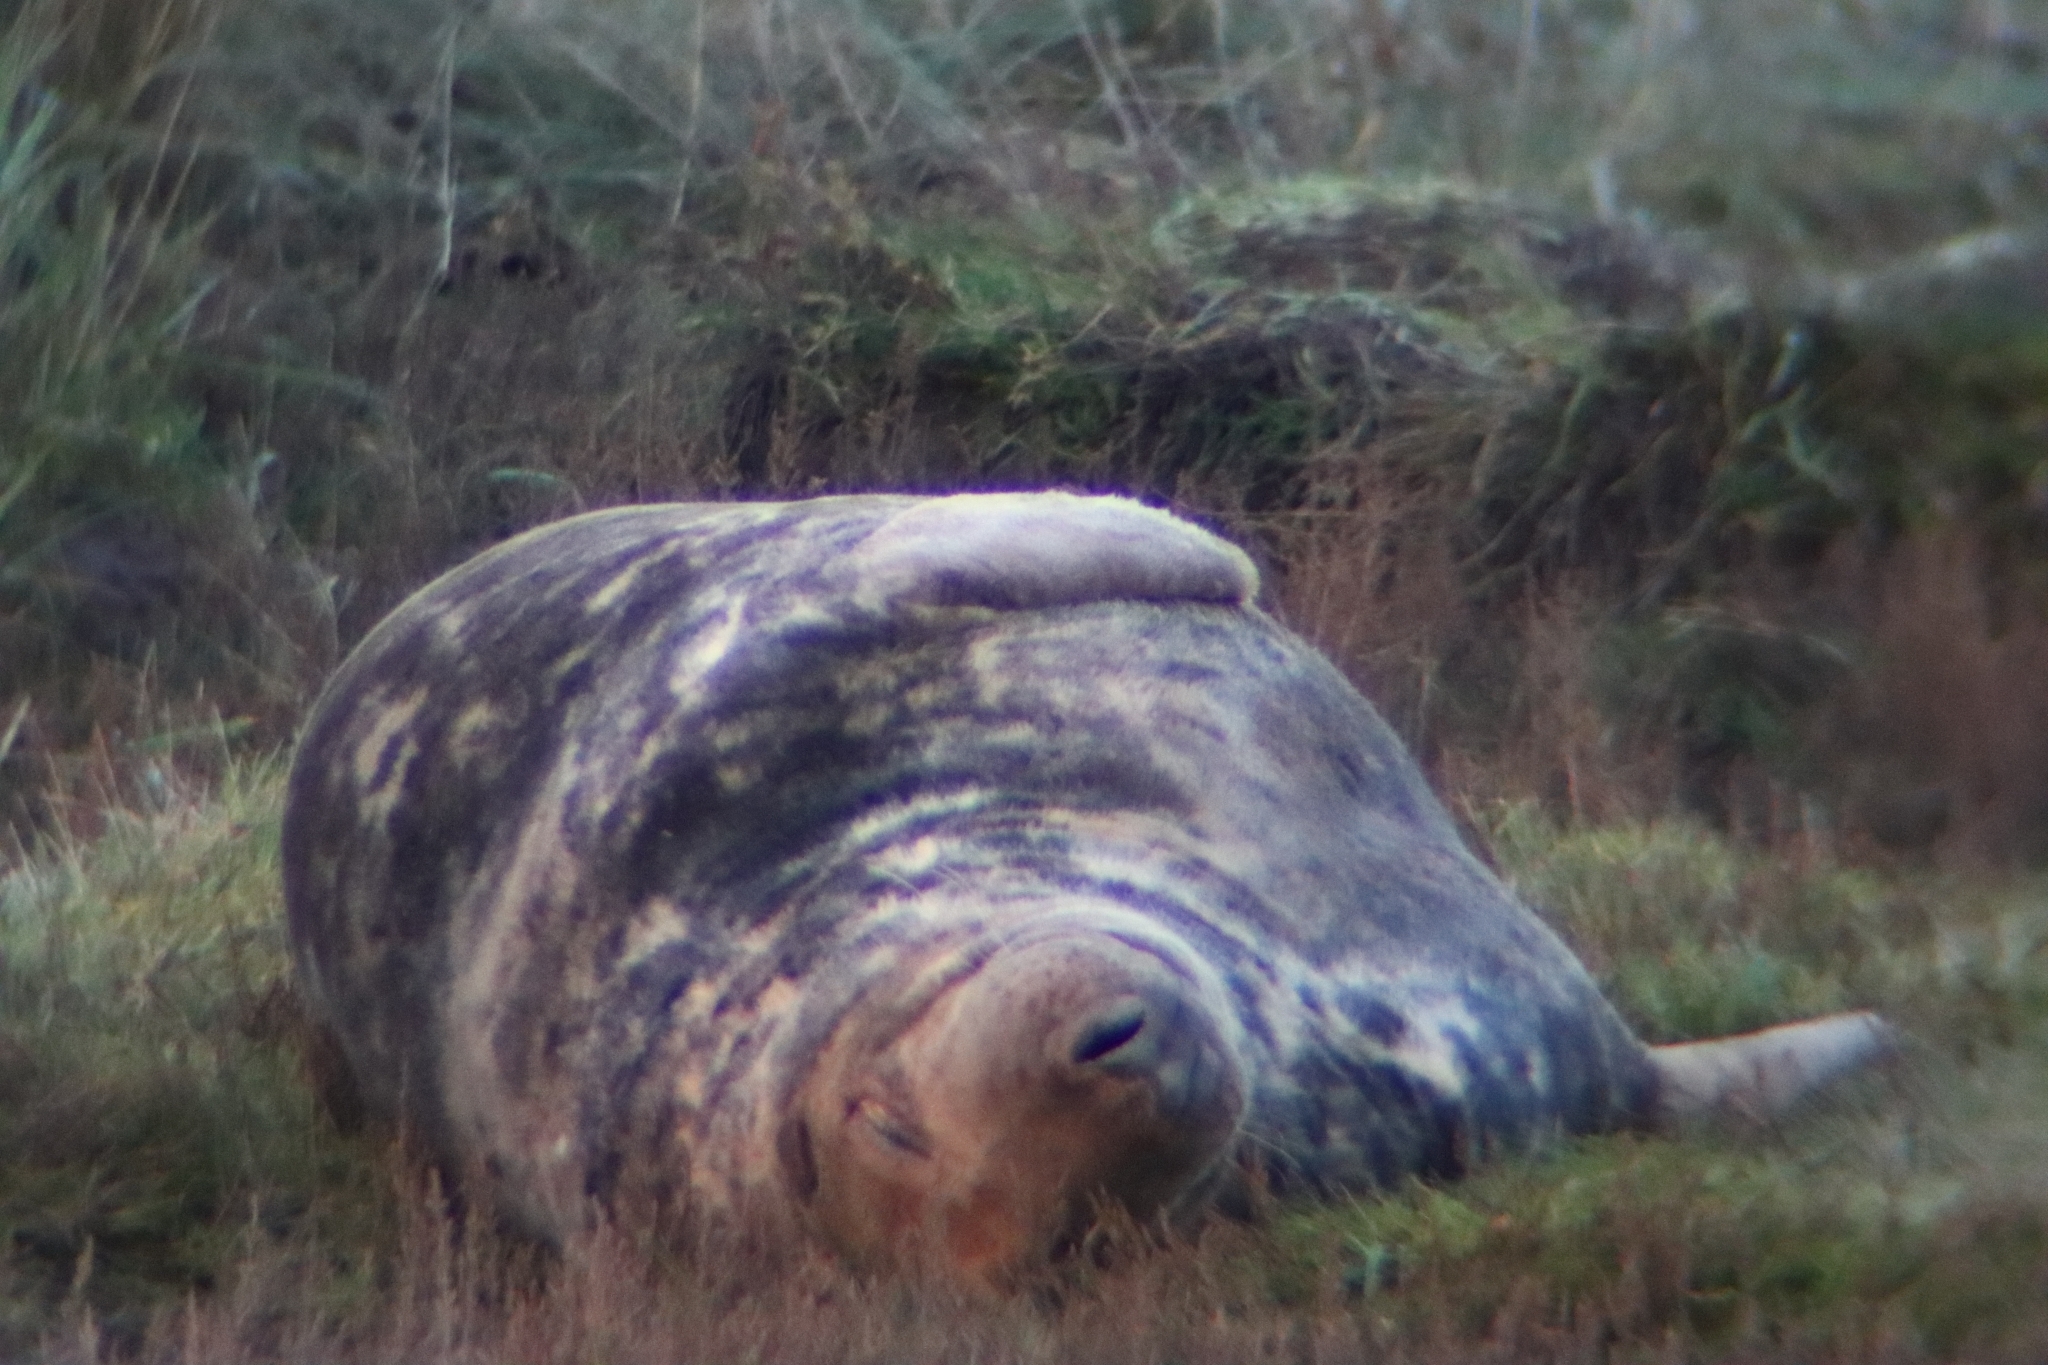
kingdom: Animalia
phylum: Chordata
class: Mammalia
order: Carnivora
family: Phocidae
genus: Halichoerus
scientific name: Halichoerus grypus
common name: Grey seal
